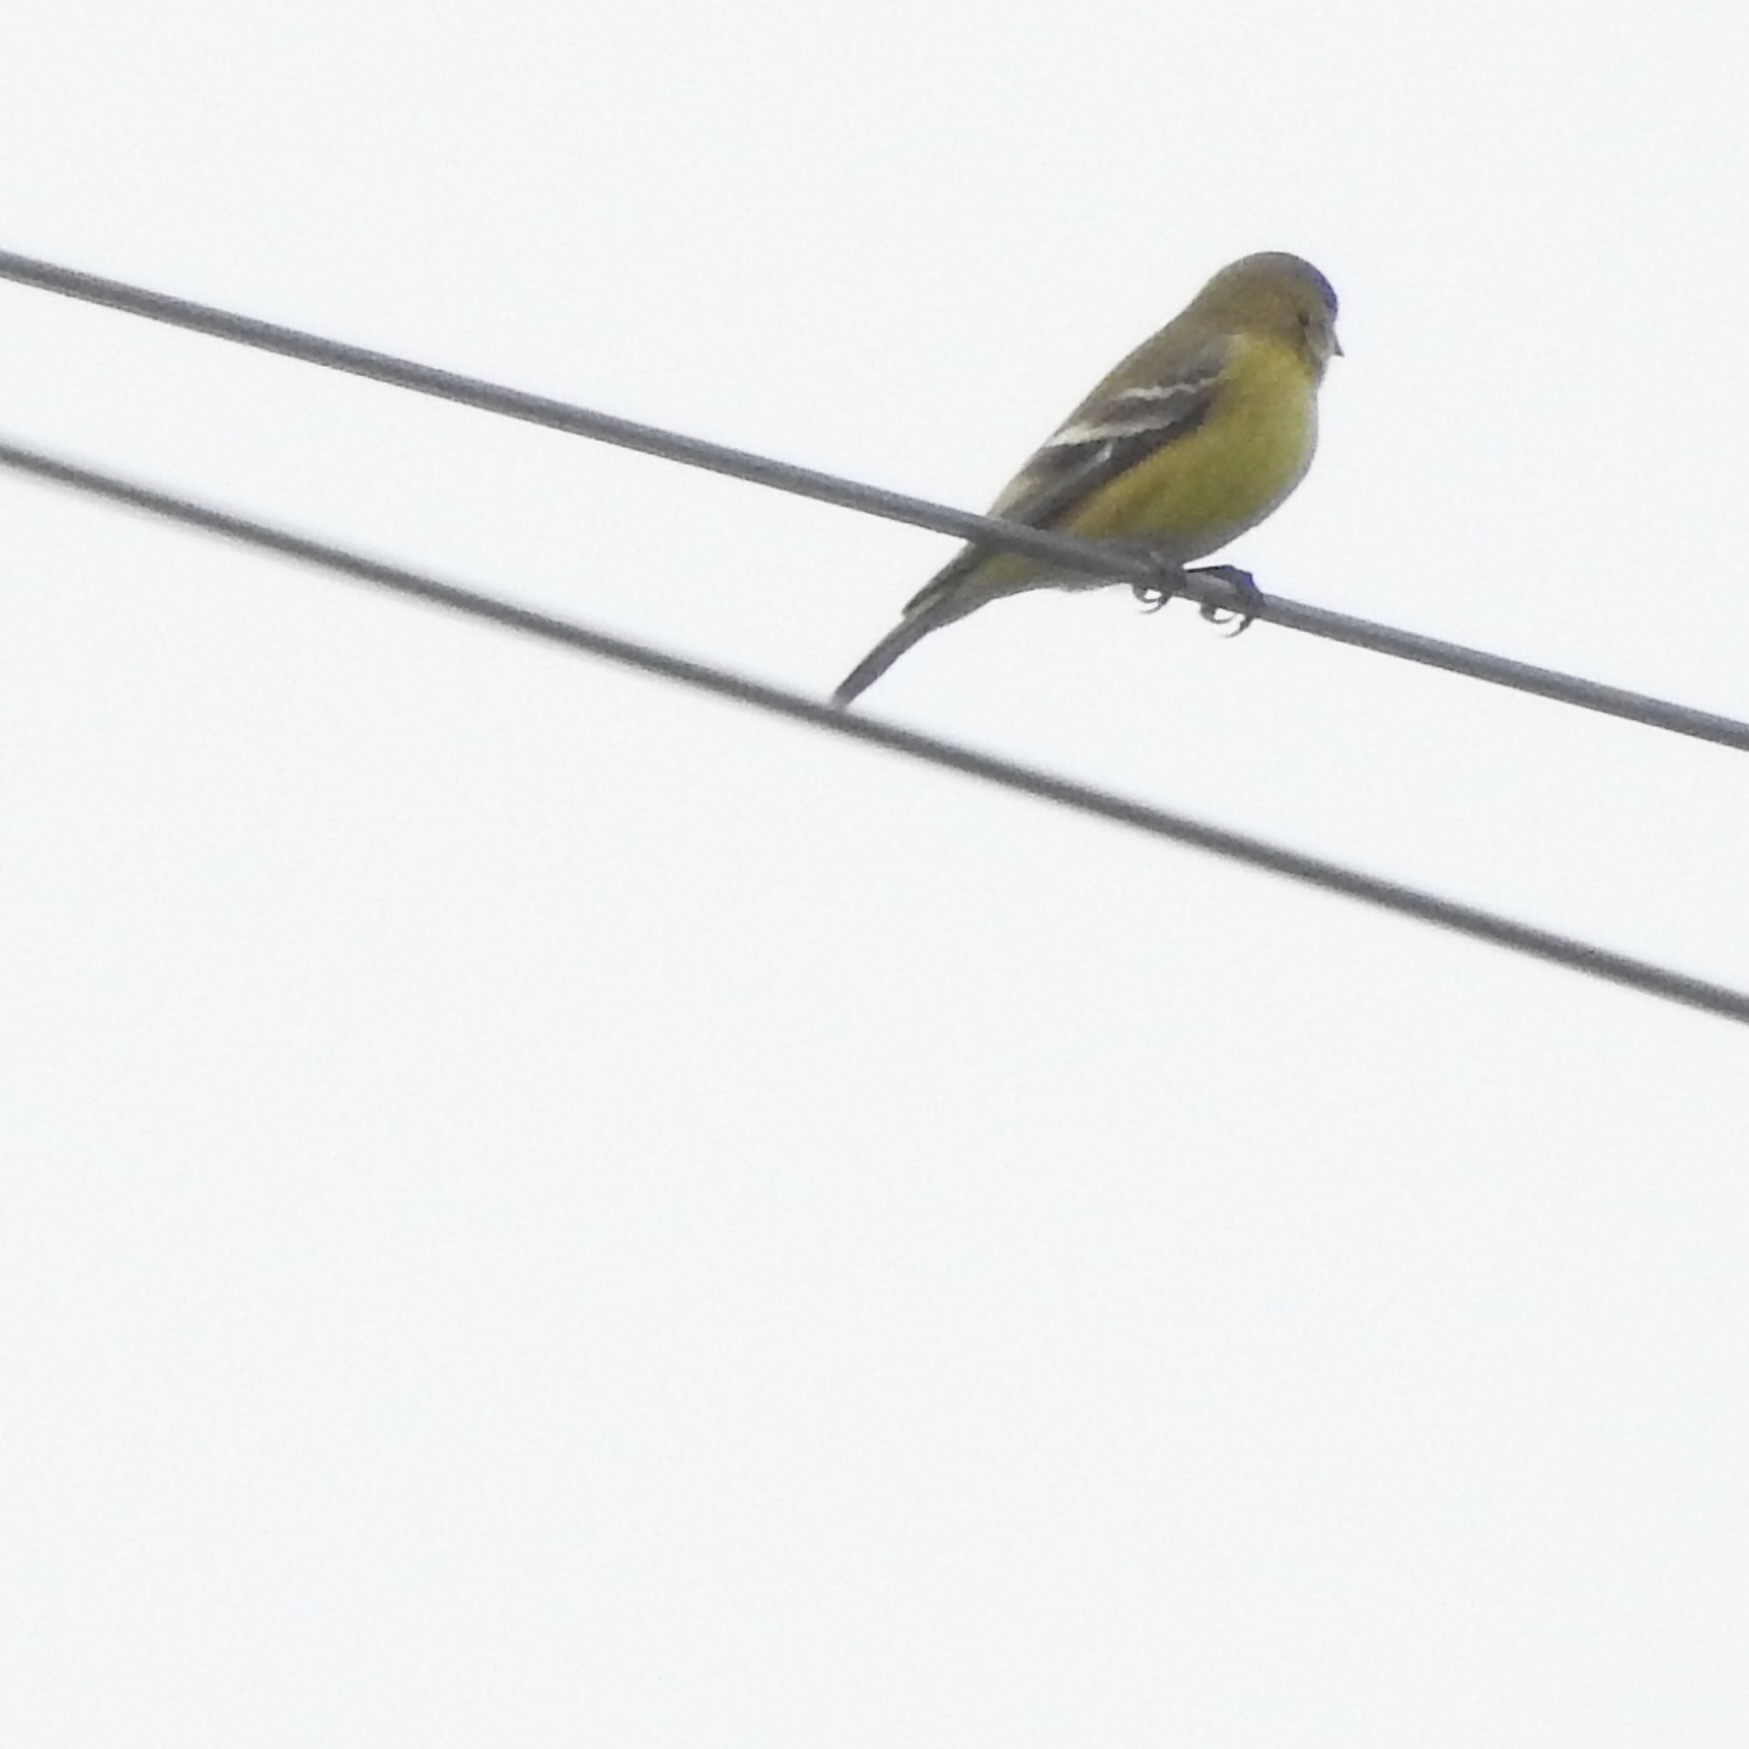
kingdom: Animalia
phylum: Chordata
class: Aves
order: Passeriformes
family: Fringillidae
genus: Spinus
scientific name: Spinus psaltria
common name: Lesser goldfinch
